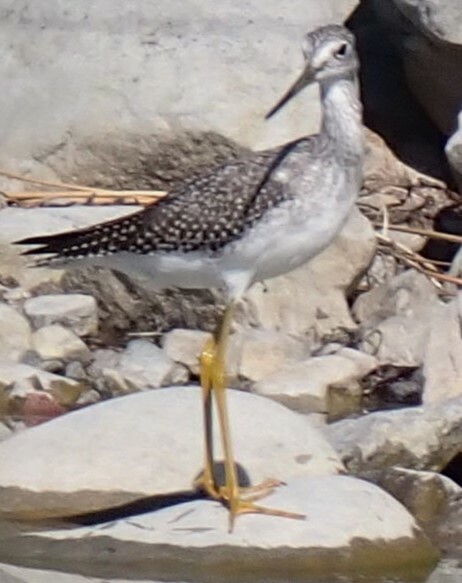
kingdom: Animalia
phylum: Chordata
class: Aves
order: Charadriiformes
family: Scolopacidae
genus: Tringa
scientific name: Tringa melanoleuca
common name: Greater yellowlegs
